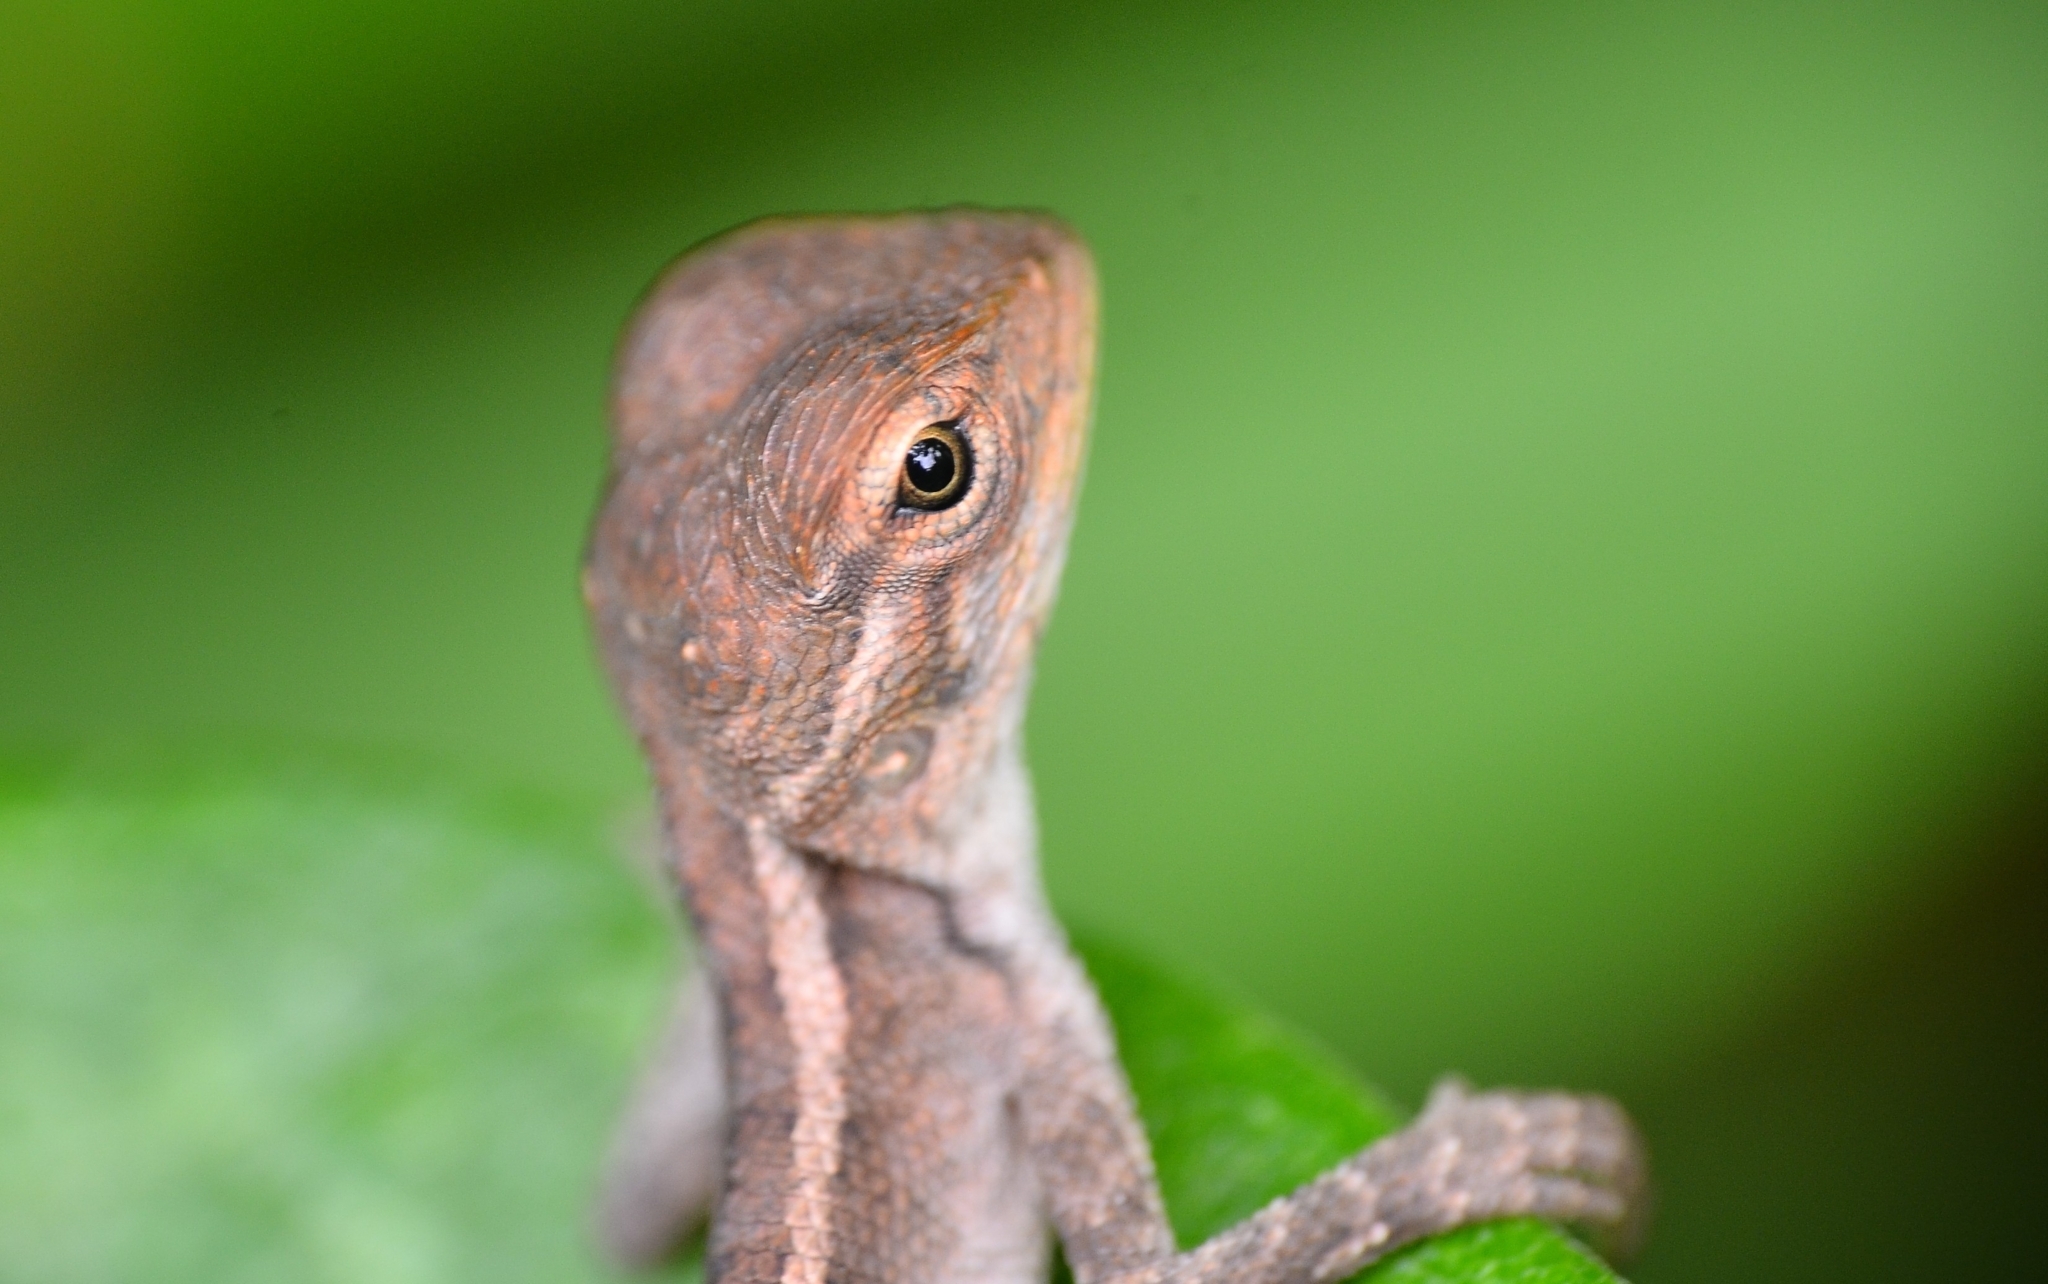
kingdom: Animalia
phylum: Chordata
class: Squamata
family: Agamidae
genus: Calotes
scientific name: Calotes versicolor
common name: Oriental garden lizard
